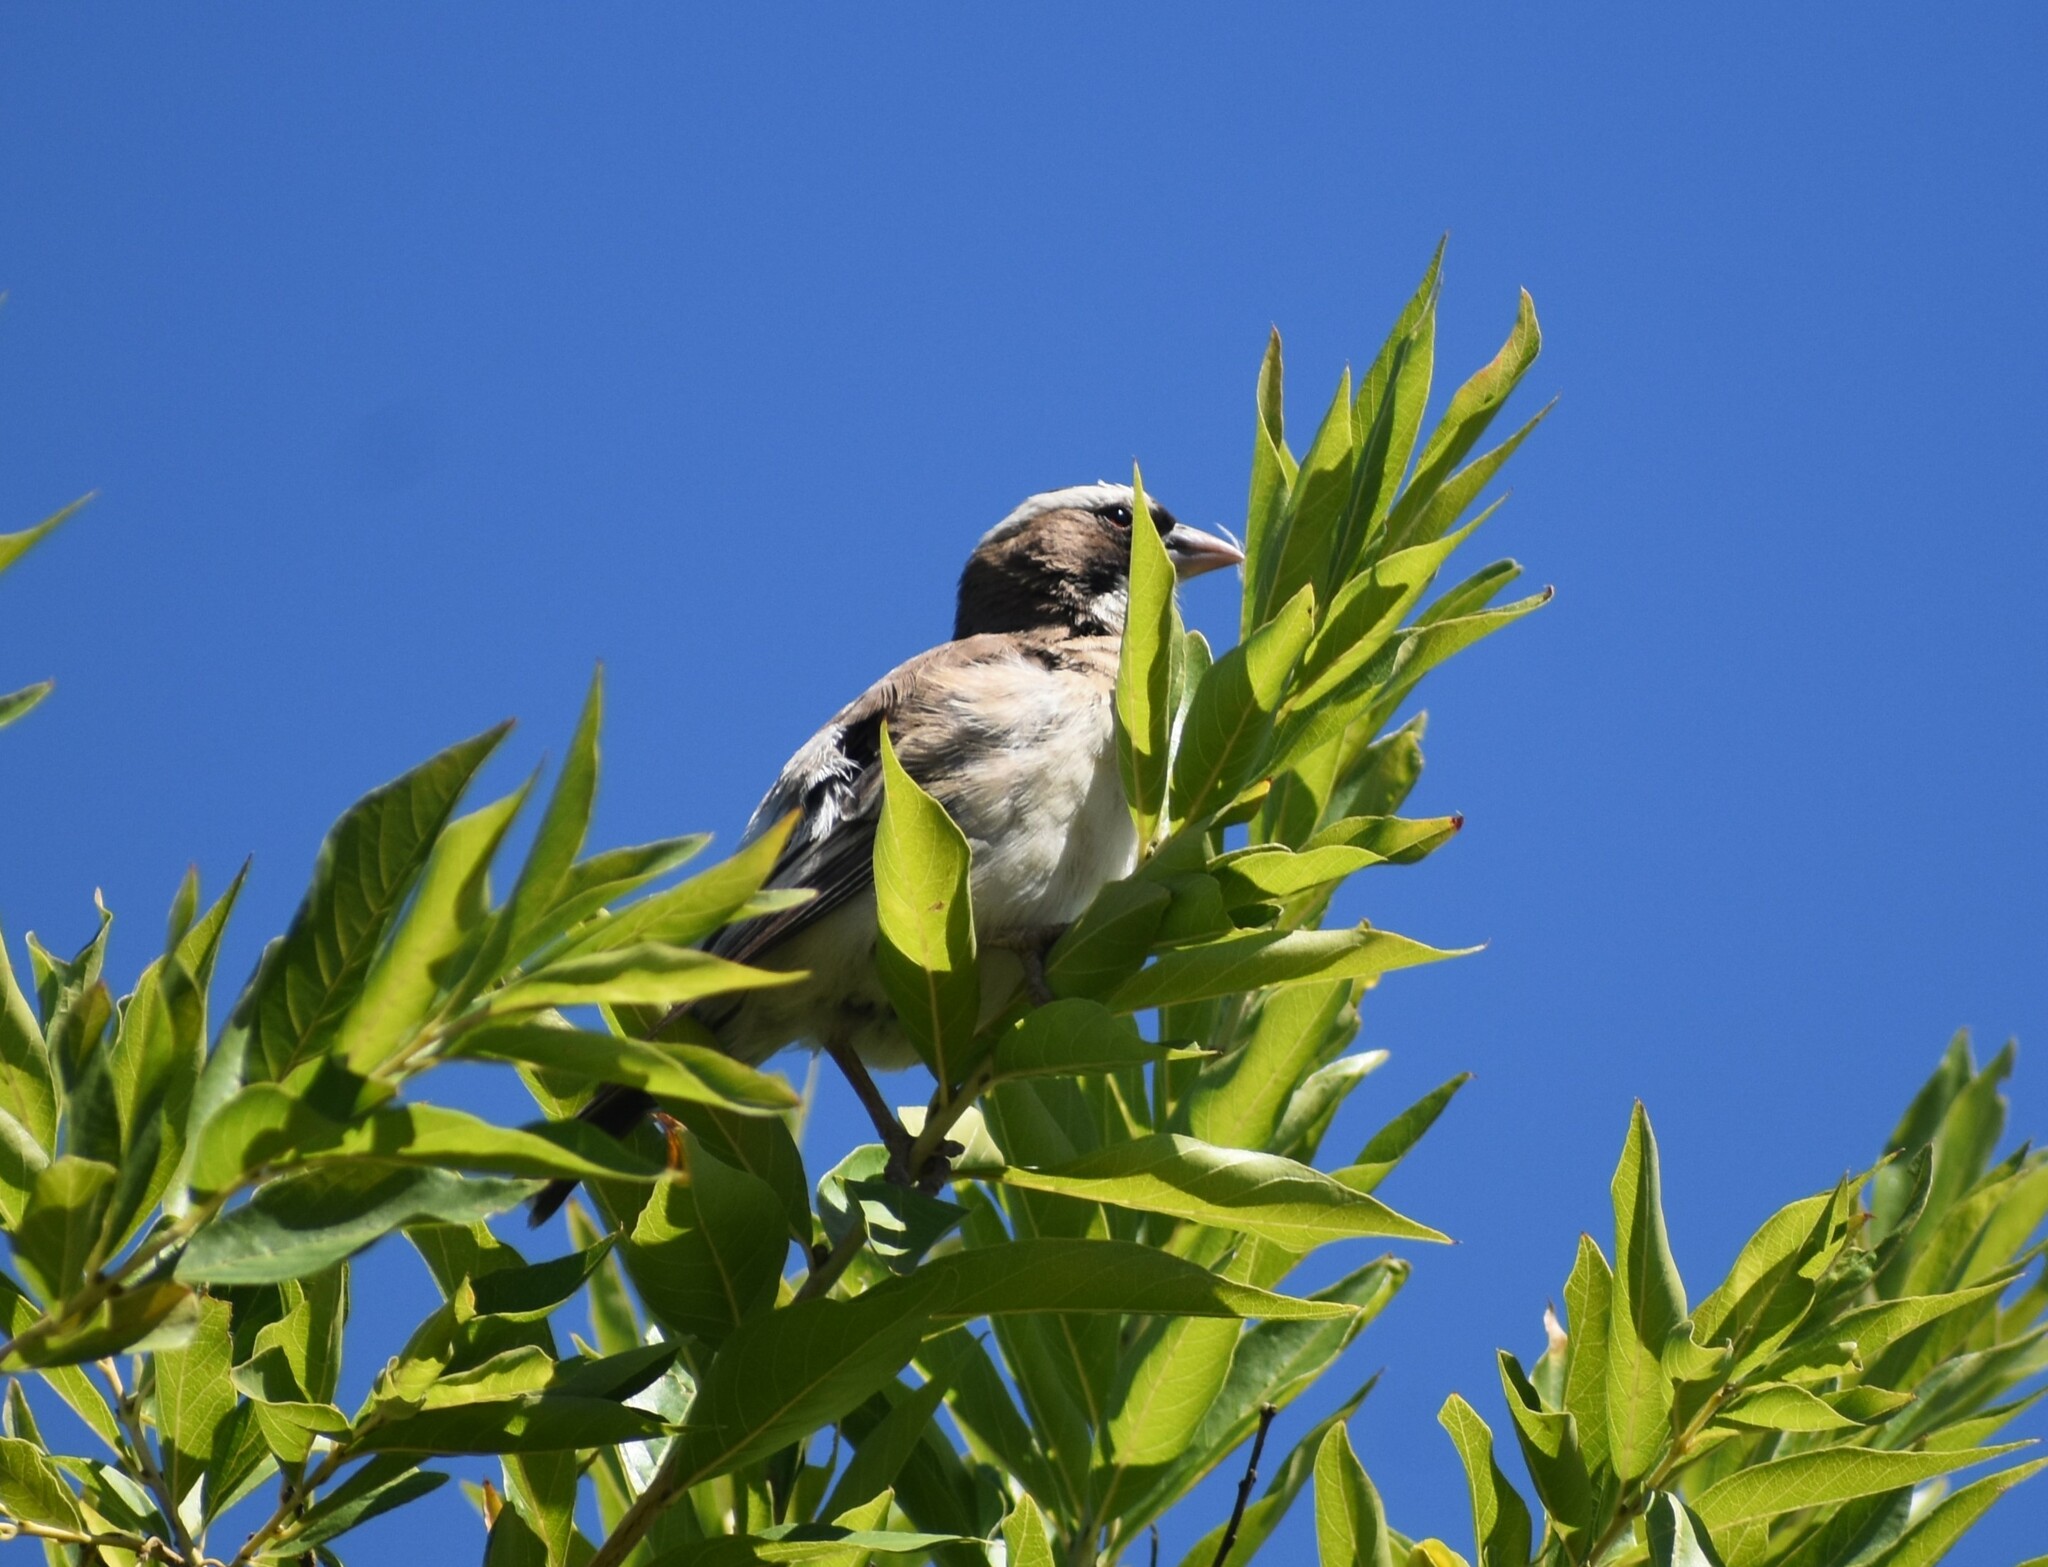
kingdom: Animalia
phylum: Chordata
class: Aves
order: Passeriformes
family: Passeridae
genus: Plocepasser
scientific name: Plocepasser mahali
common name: White-browed sparrow-weaver
